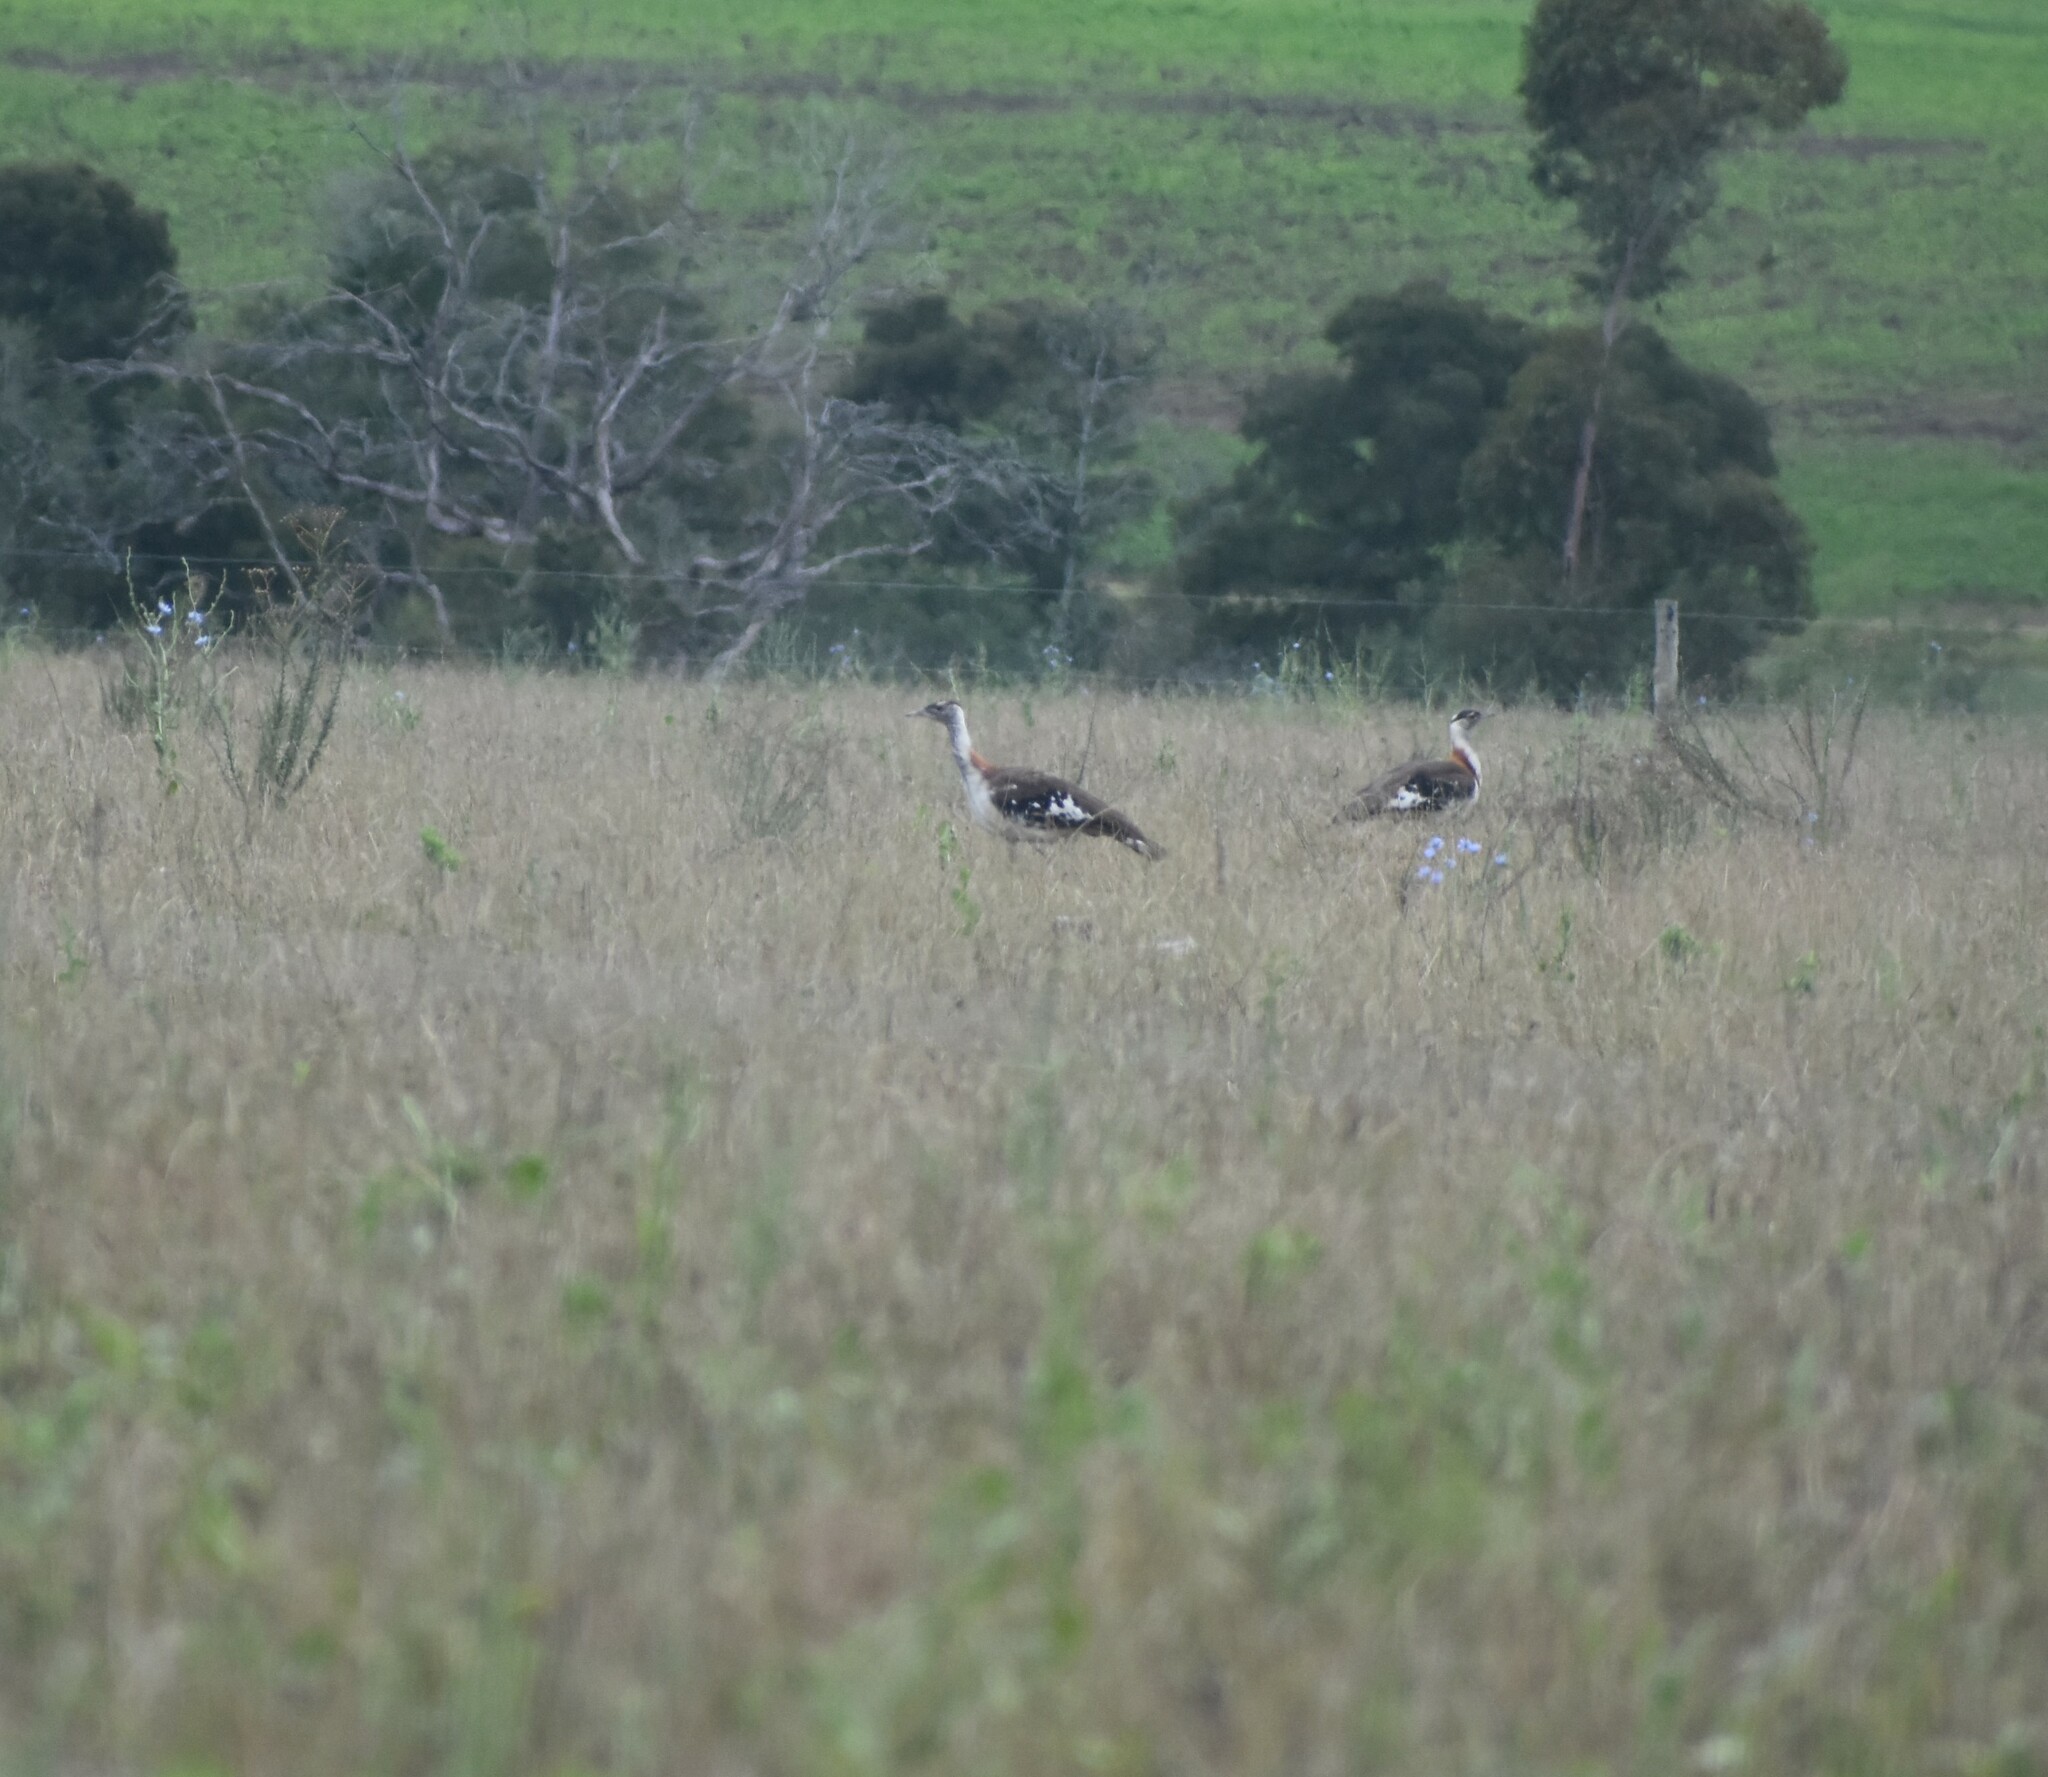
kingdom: Animalia
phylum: Chordata
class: Aves
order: Otidiformes
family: Otididae
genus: Neotis
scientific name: Neotis denhami
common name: Denham's bustard
